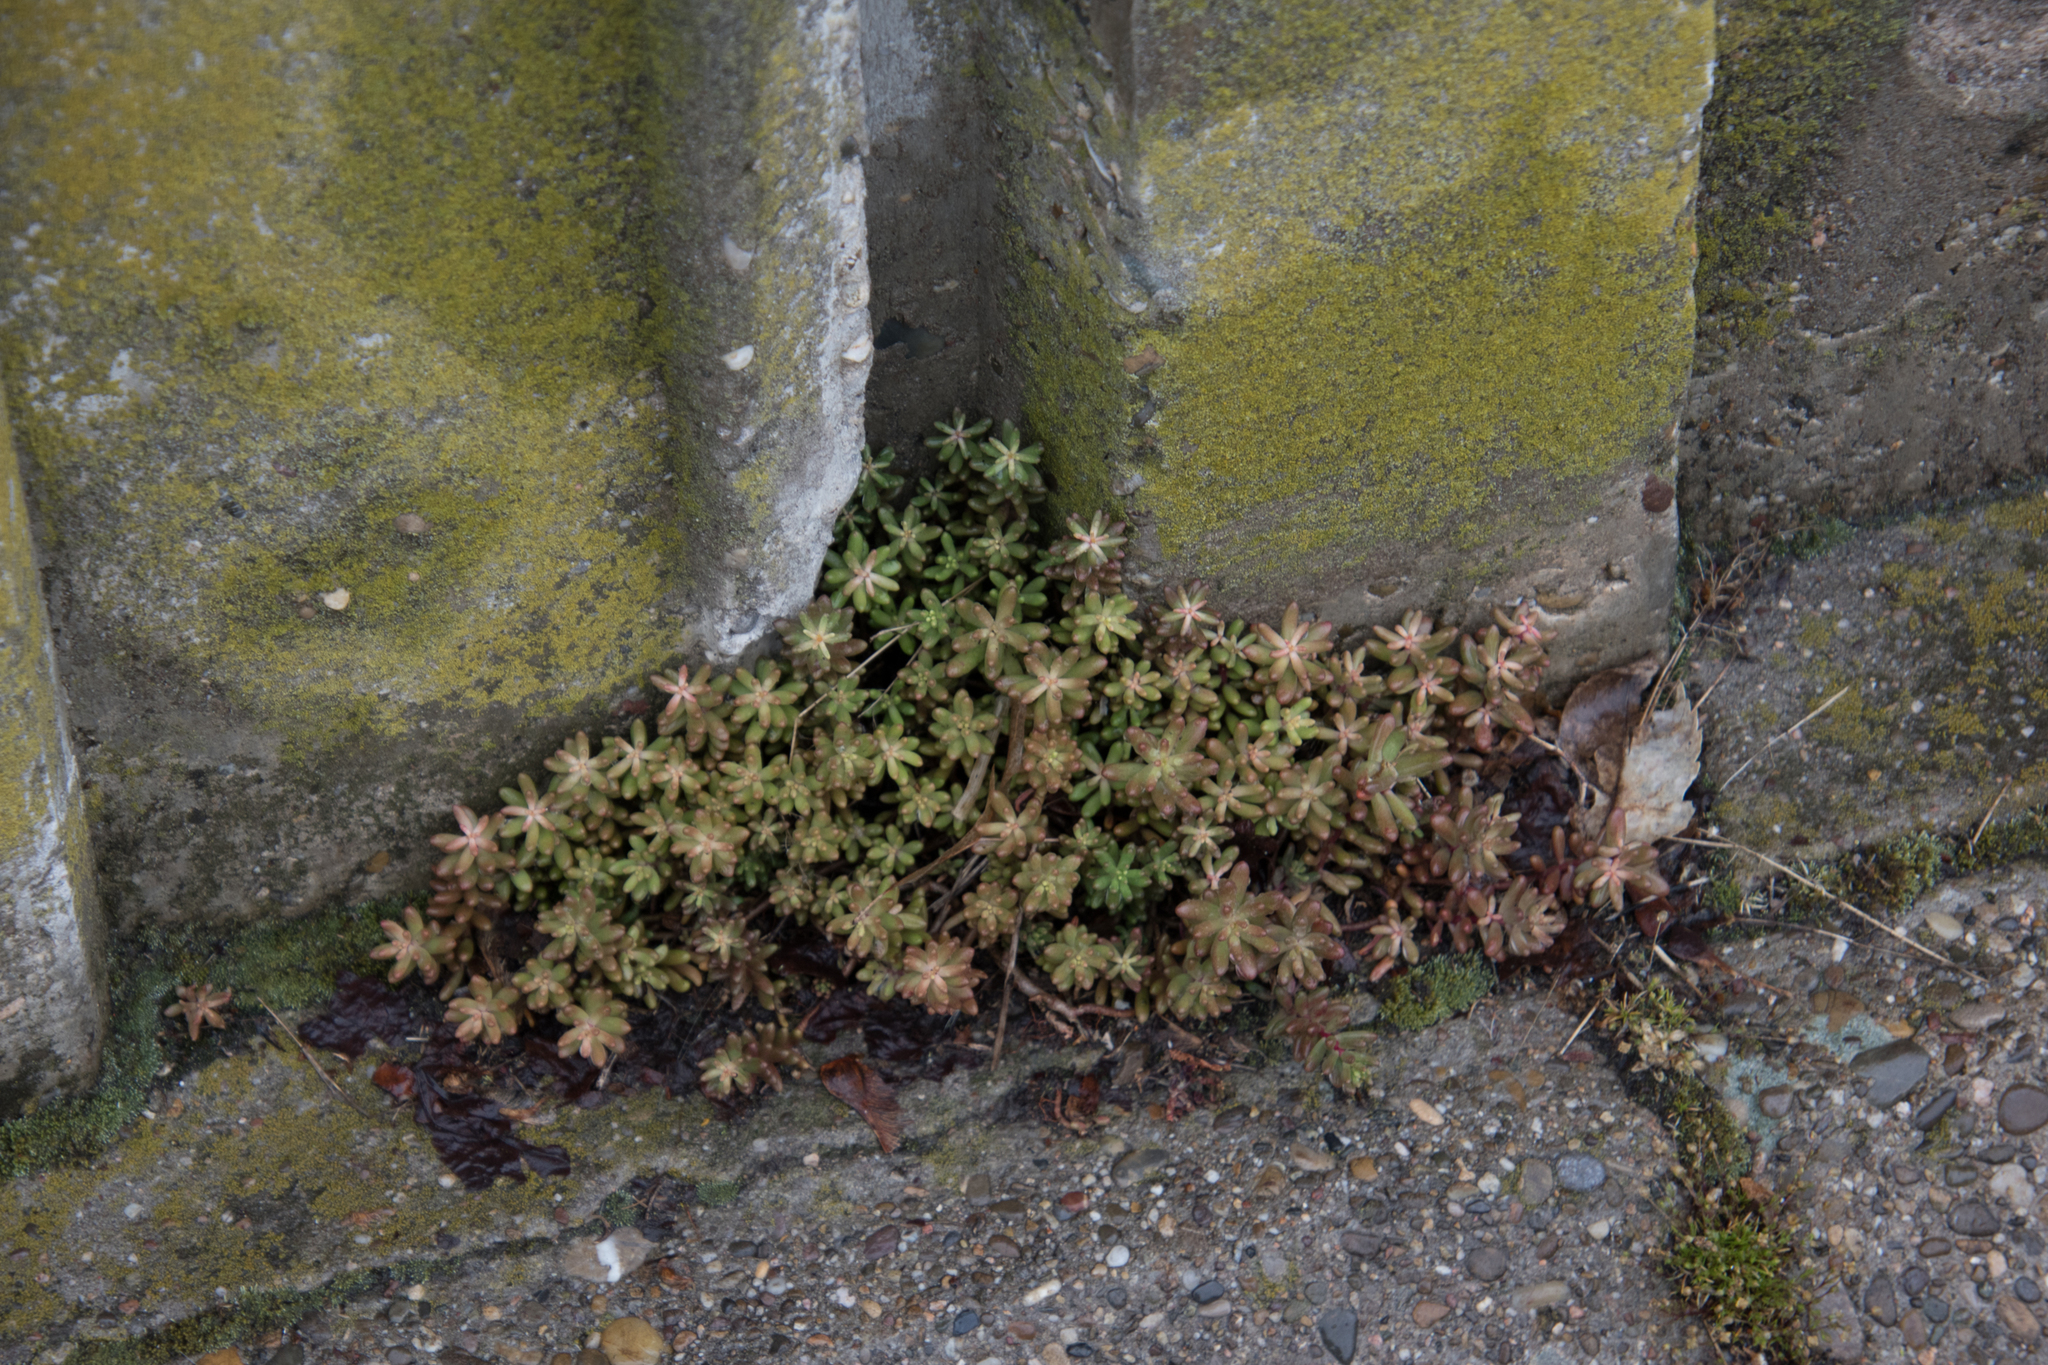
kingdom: Plantae
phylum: Tracheophyta
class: Magnoliopsida
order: Saxifragales
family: Crassulaceae
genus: Sedum
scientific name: Sedum album
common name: White stonecrop
